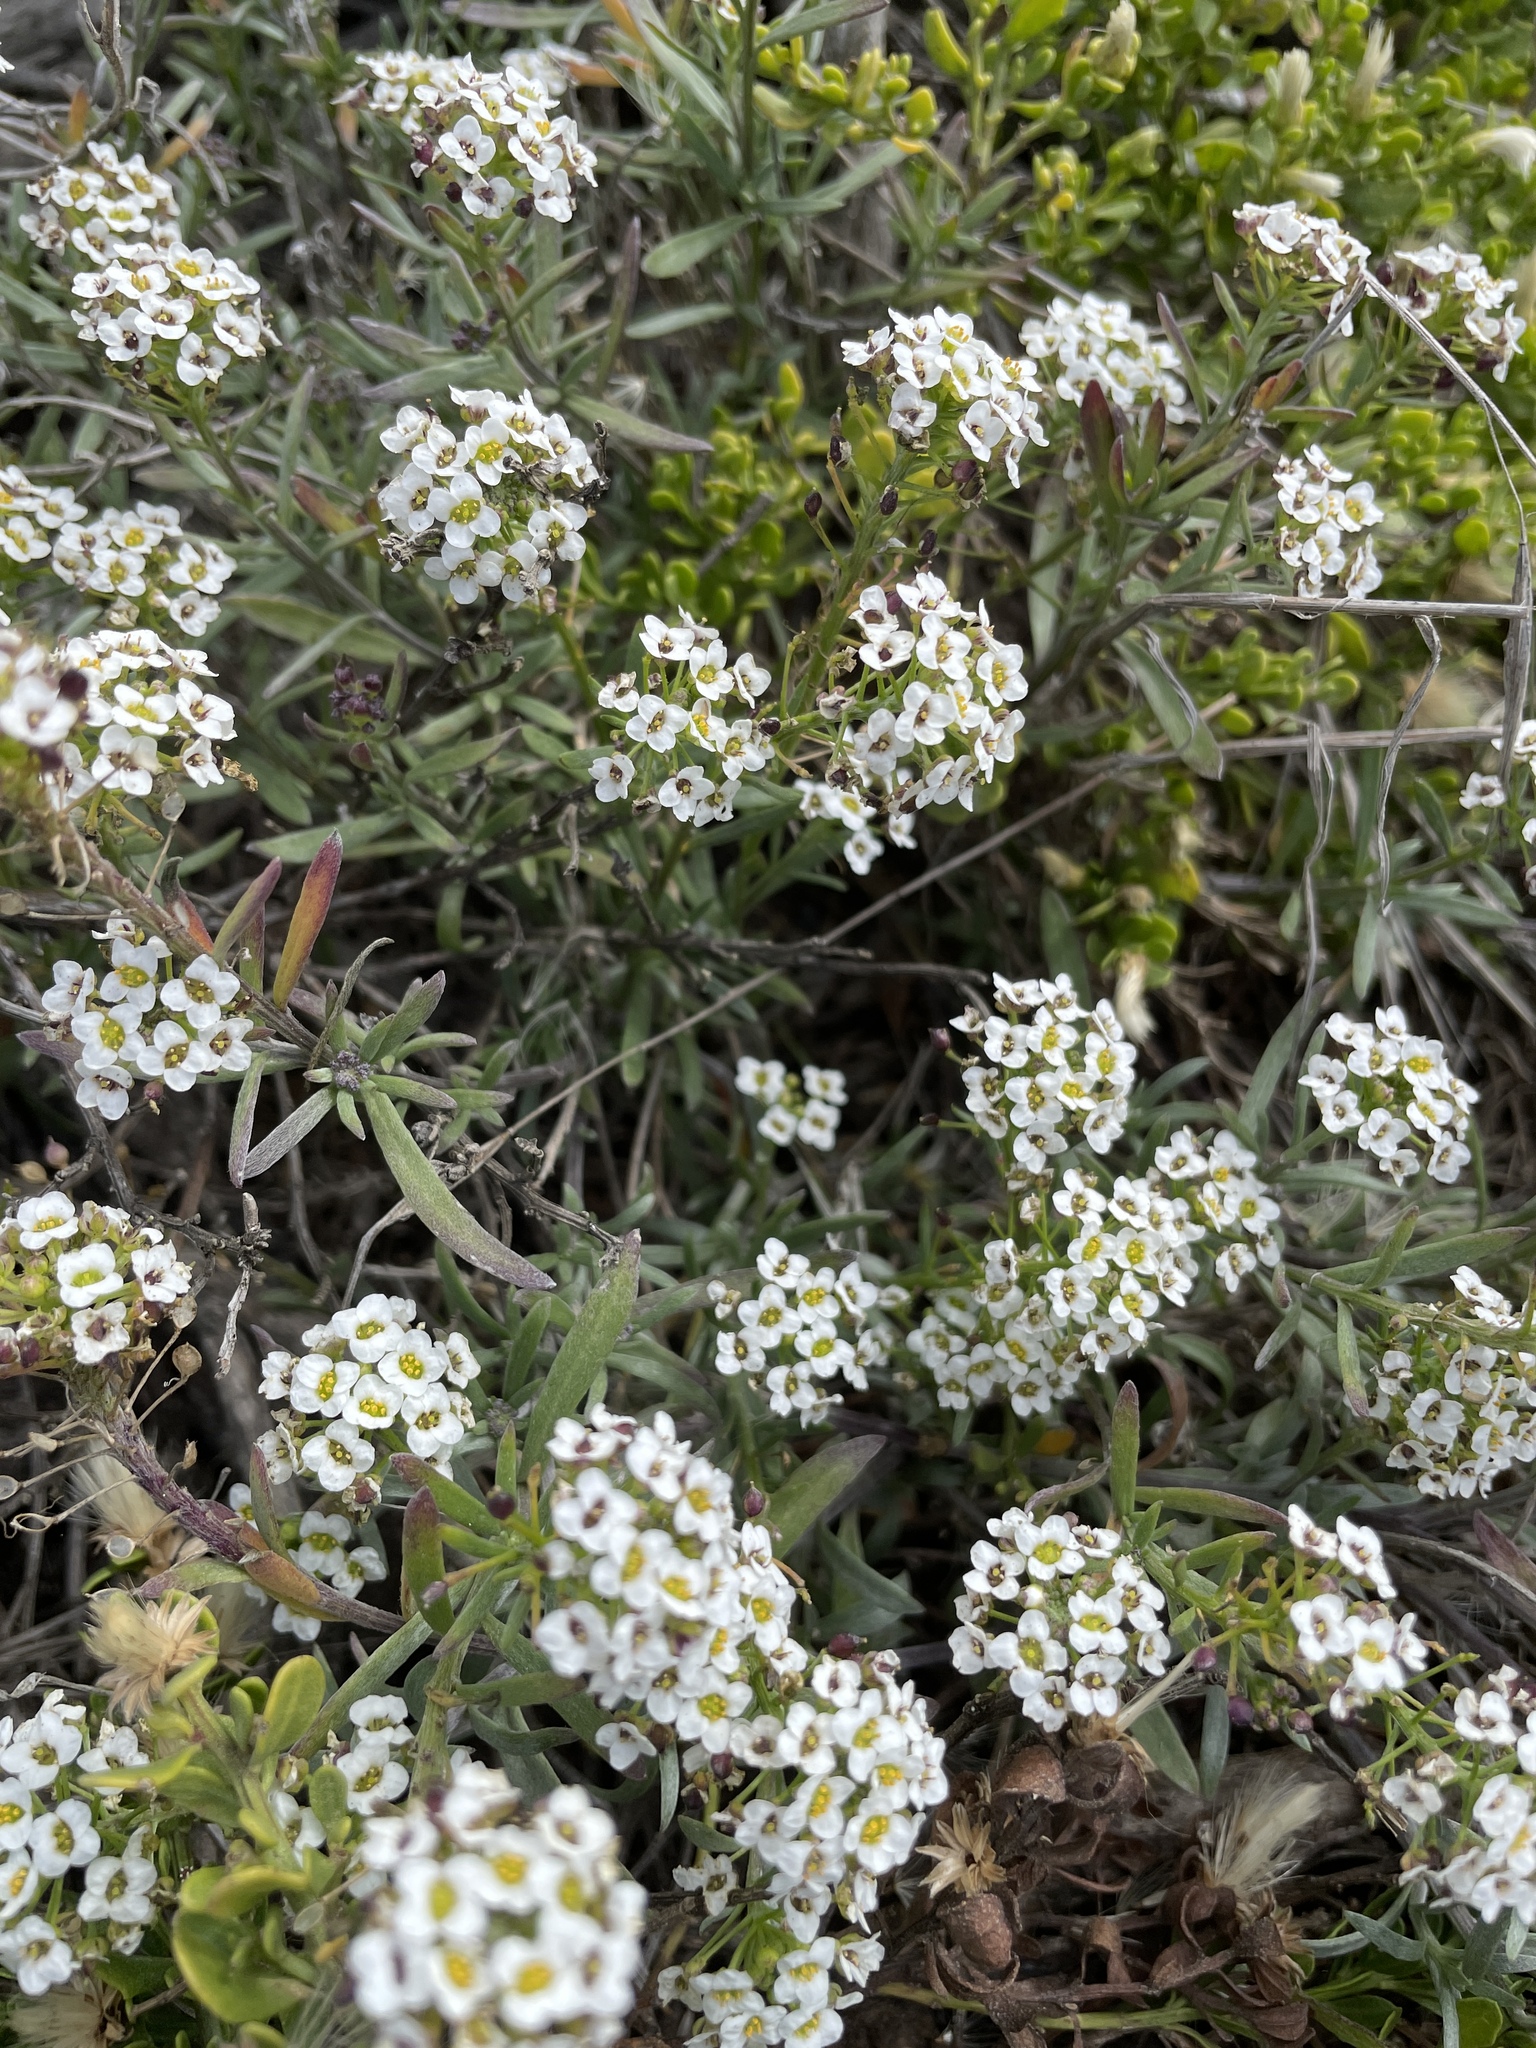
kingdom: Plantae
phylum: Tracheophyta
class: Magnoliopsida
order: Brassicales
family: Brassicaceae
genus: Lobularia
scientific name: Lobularia maritima
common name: Sweet alison
